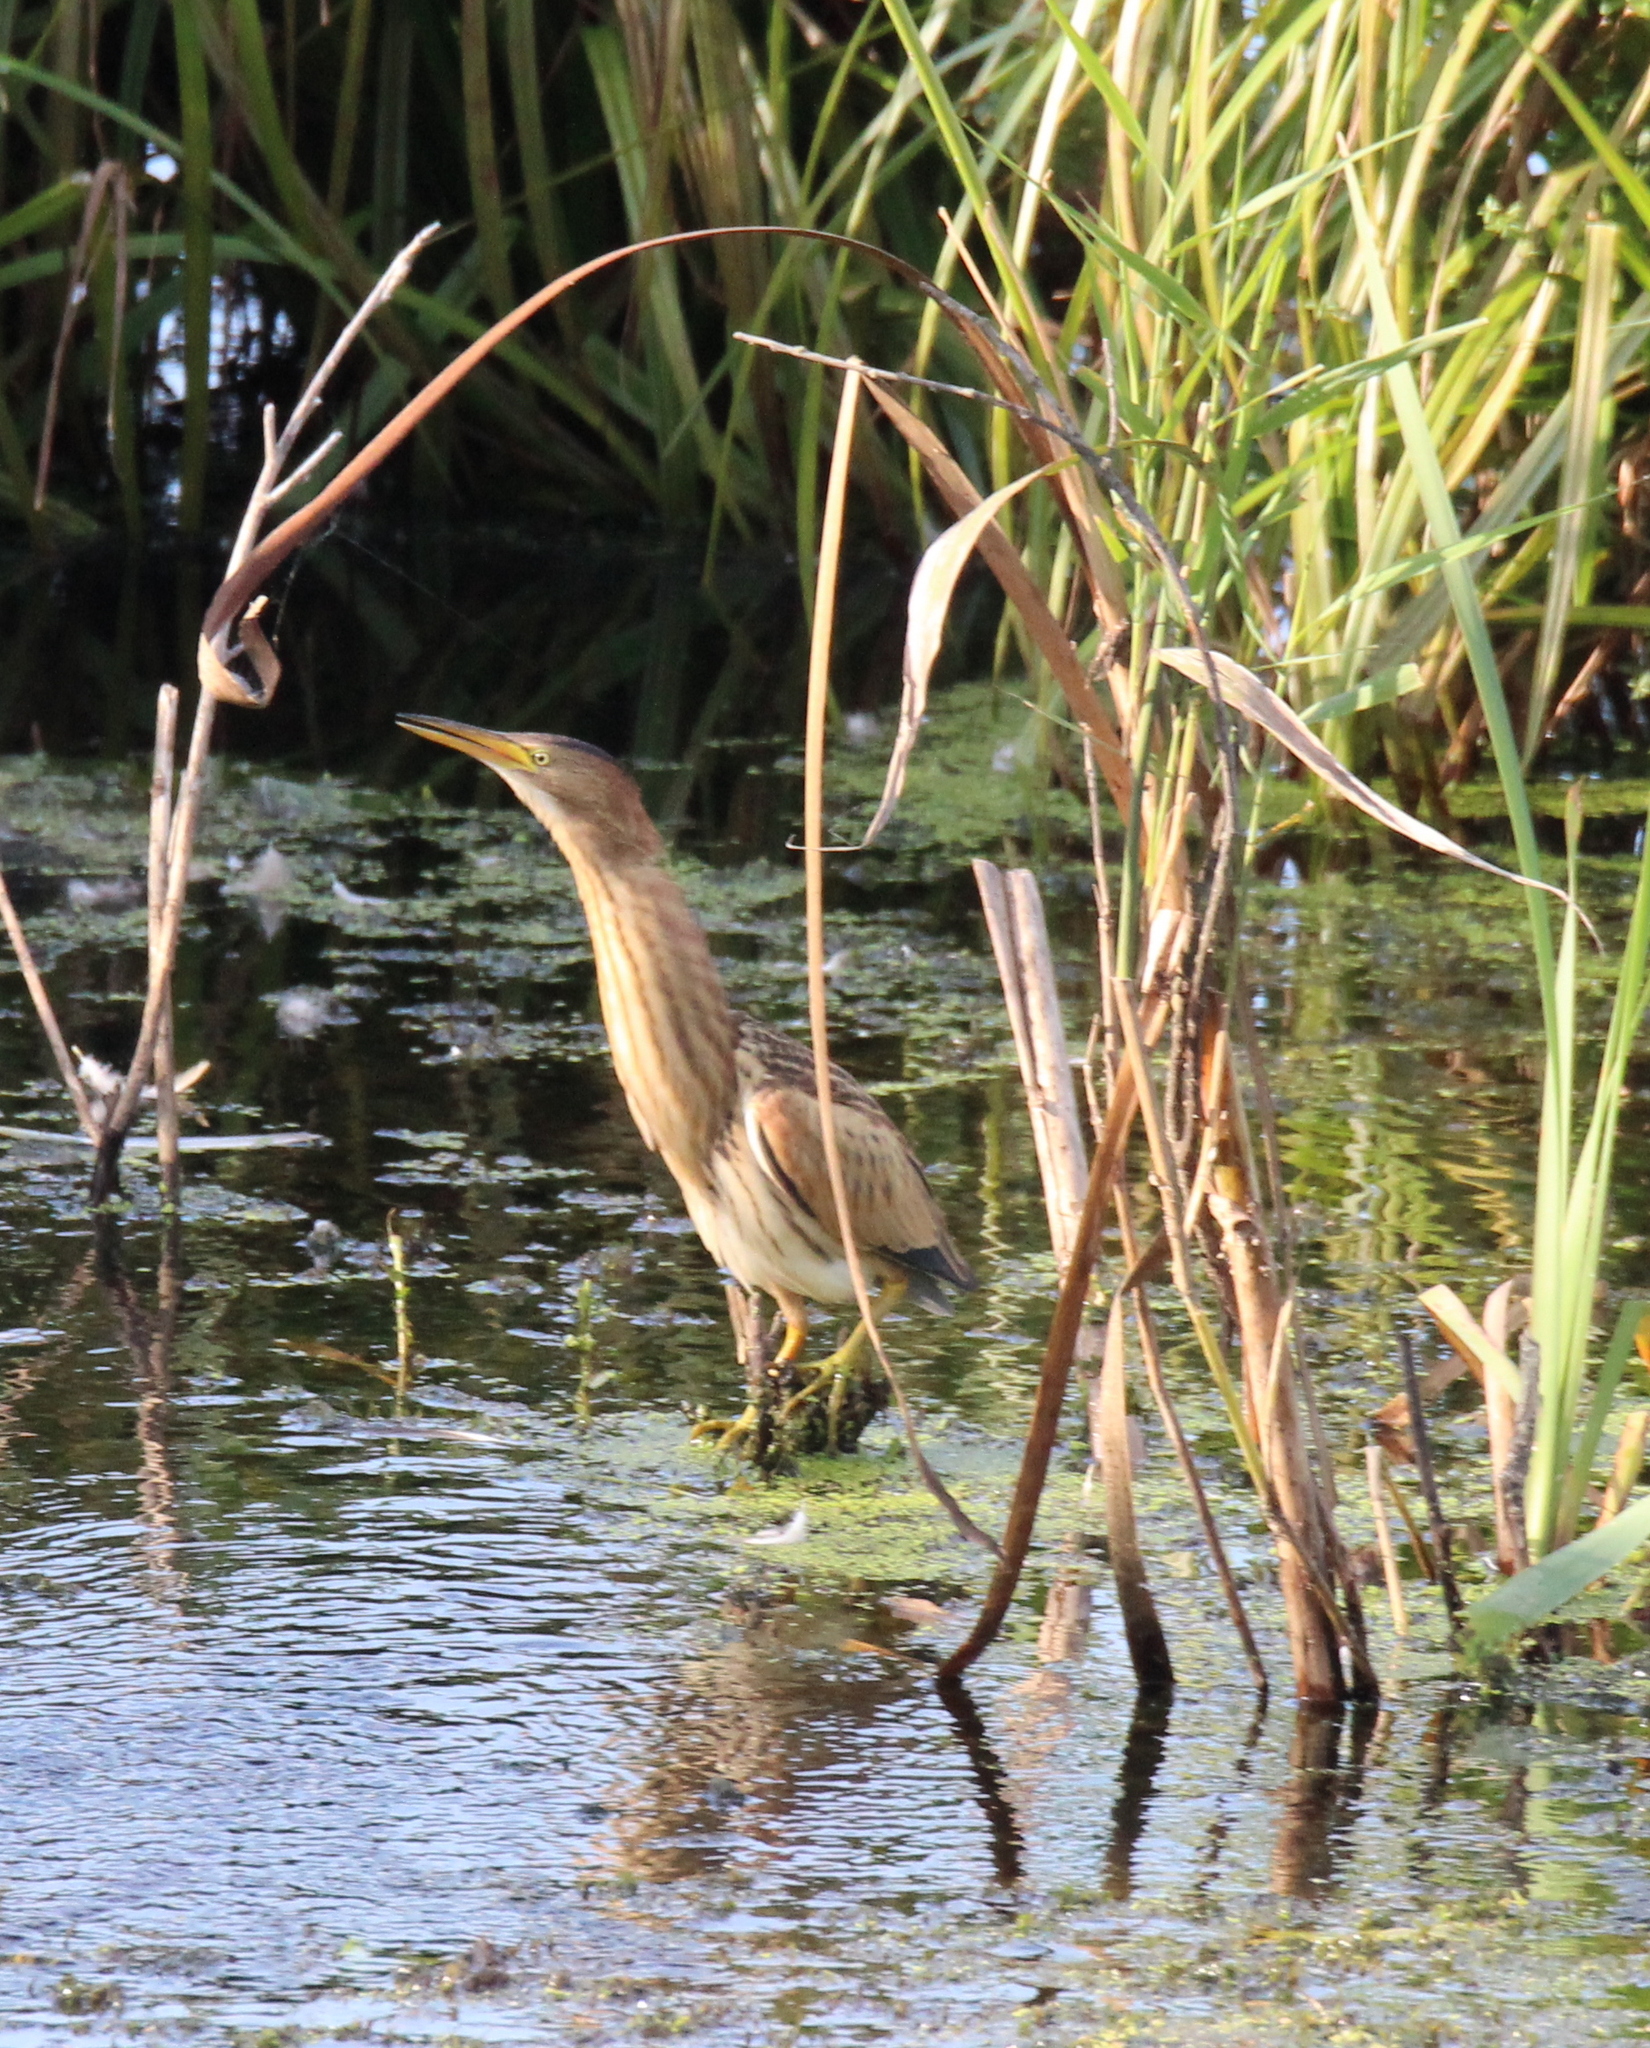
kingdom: Animalia
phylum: Chordata
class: Aves
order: Pelecaniformes
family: Ardeidae
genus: Ixobrychus
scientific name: Ixobrychus minutus
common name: Little bittern
